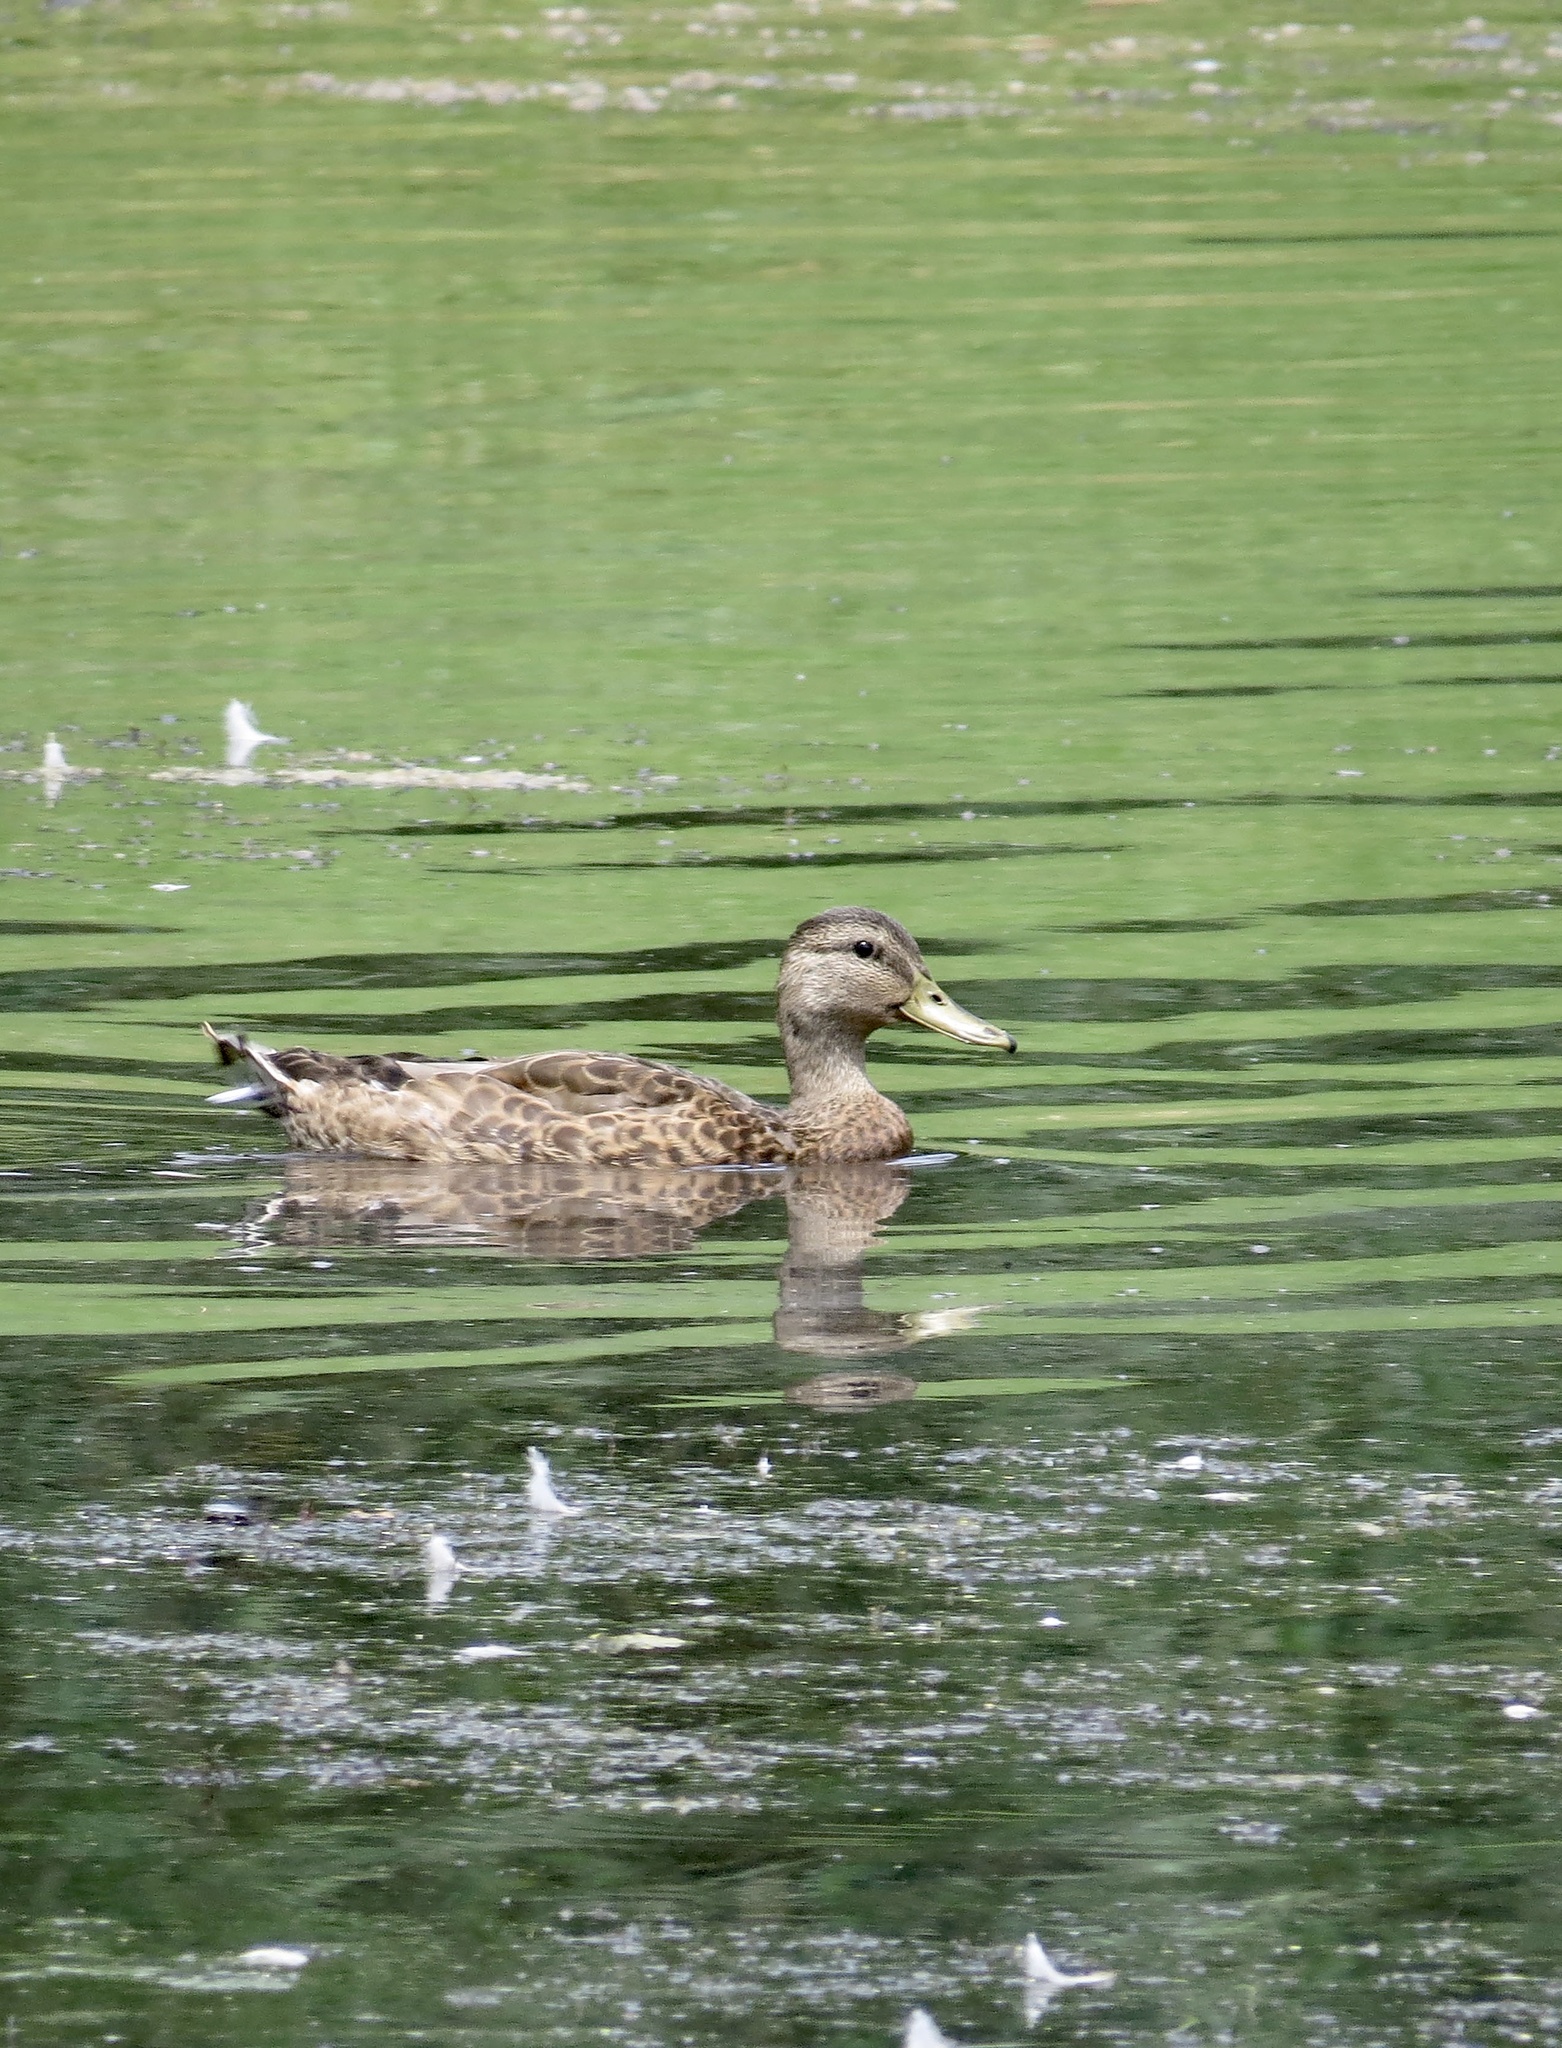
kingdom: Animalia
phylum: Chordata
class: Aves
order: Anseriformes
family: Anatidae
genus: Anas
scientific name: Anas platyrhynchos
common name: Mallard
